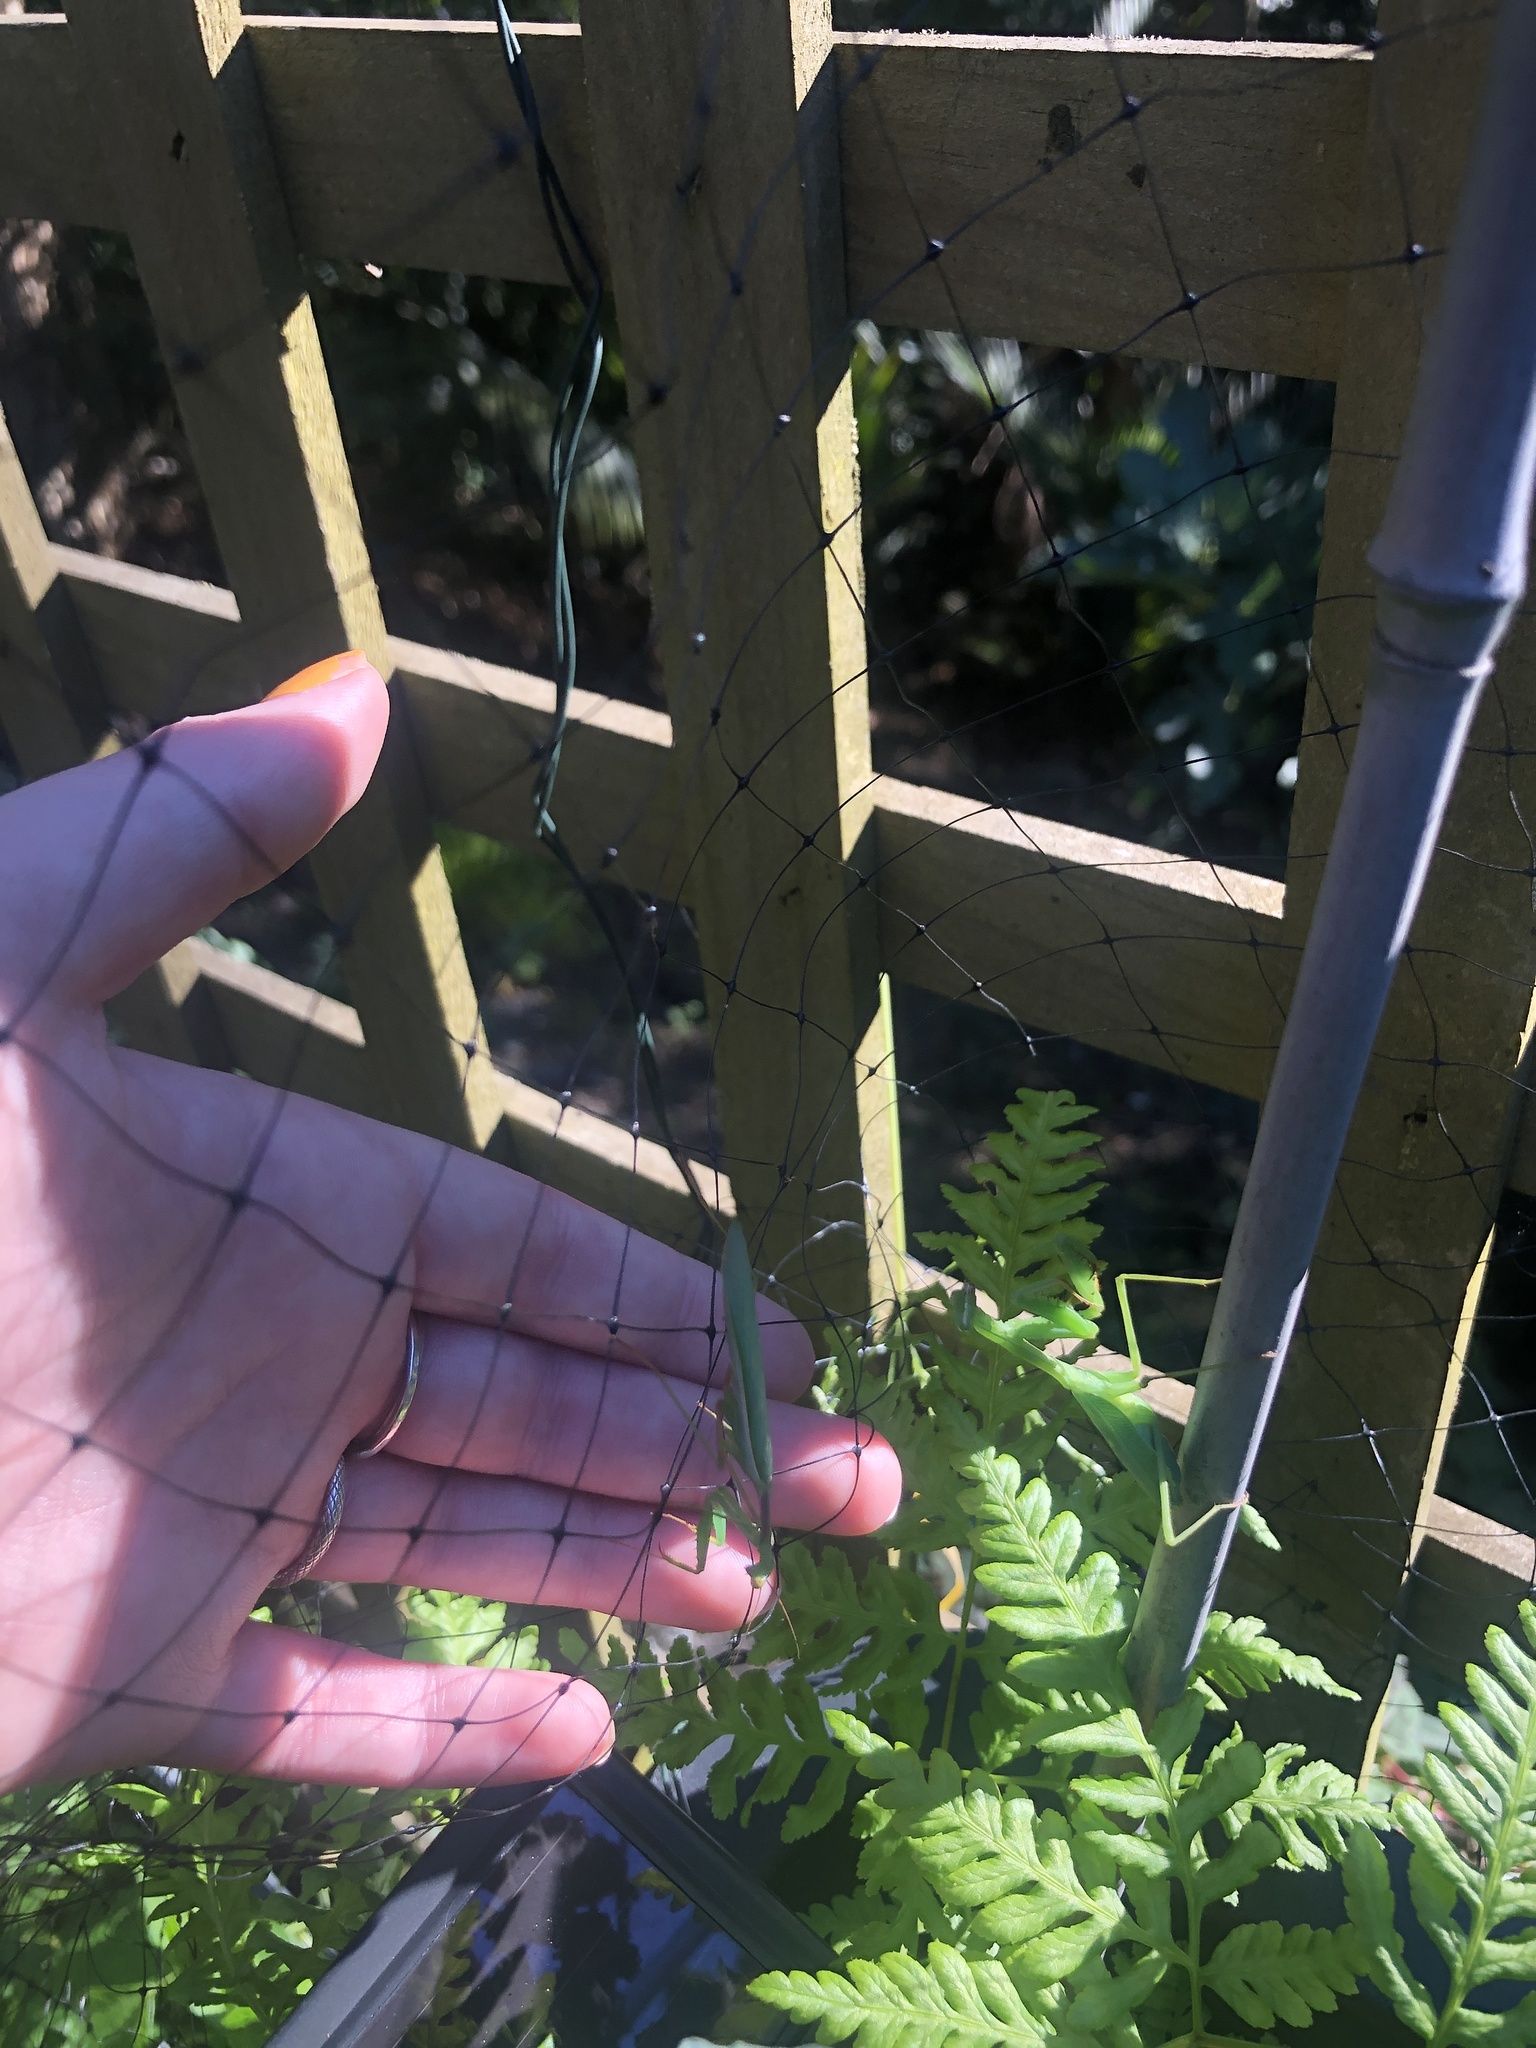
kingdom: Animalia
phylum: Arthropoda
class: Insecta
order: Mantodea
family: Miomantidae
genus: Miomantis
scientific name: Miomantis caffra
